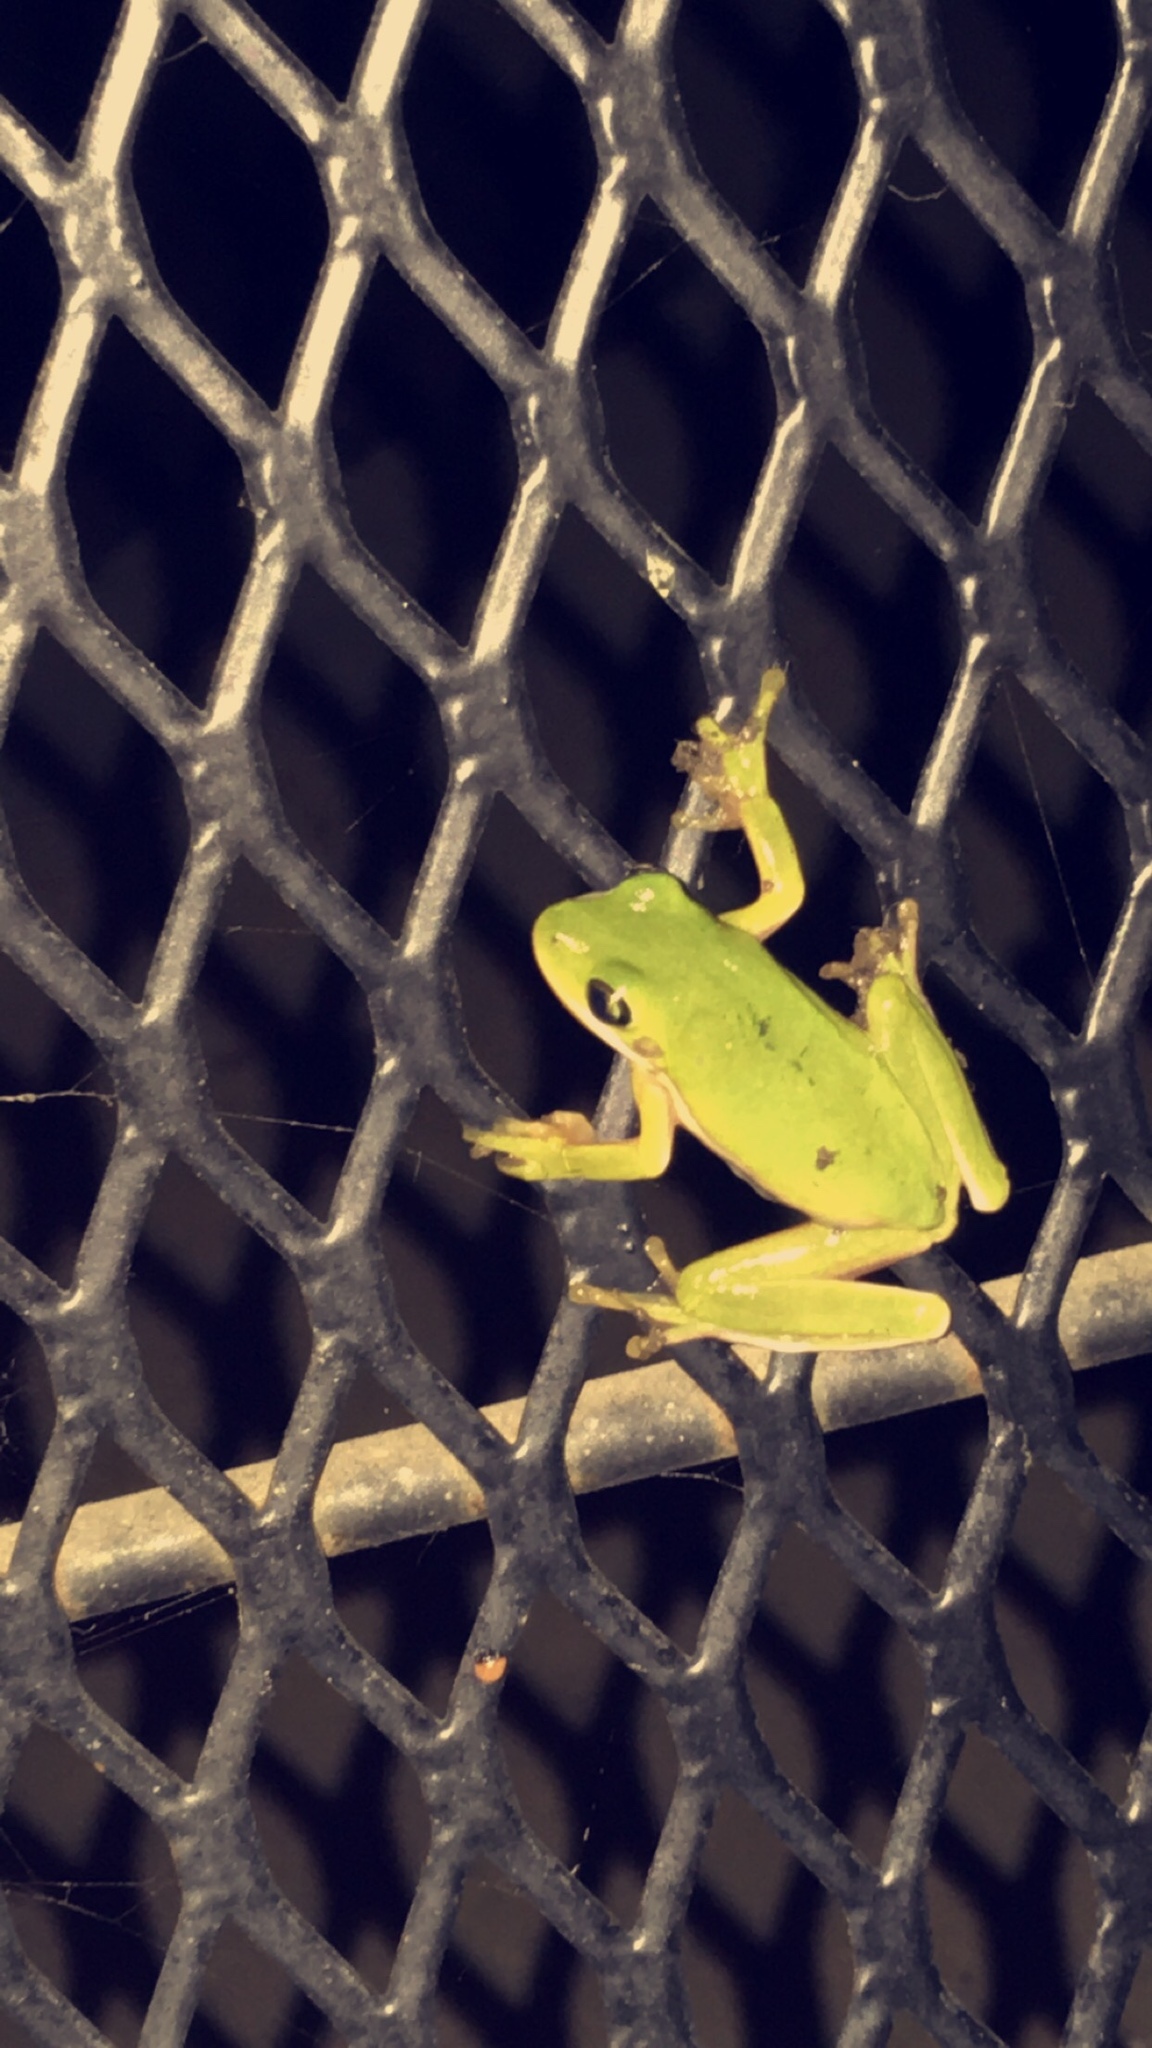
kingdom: Animalia
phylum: Chordata
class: Amphibia
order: Anura
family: Hylidae
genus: Dryophytes
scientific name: Dryophytes cinereus
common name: Green treefrog
